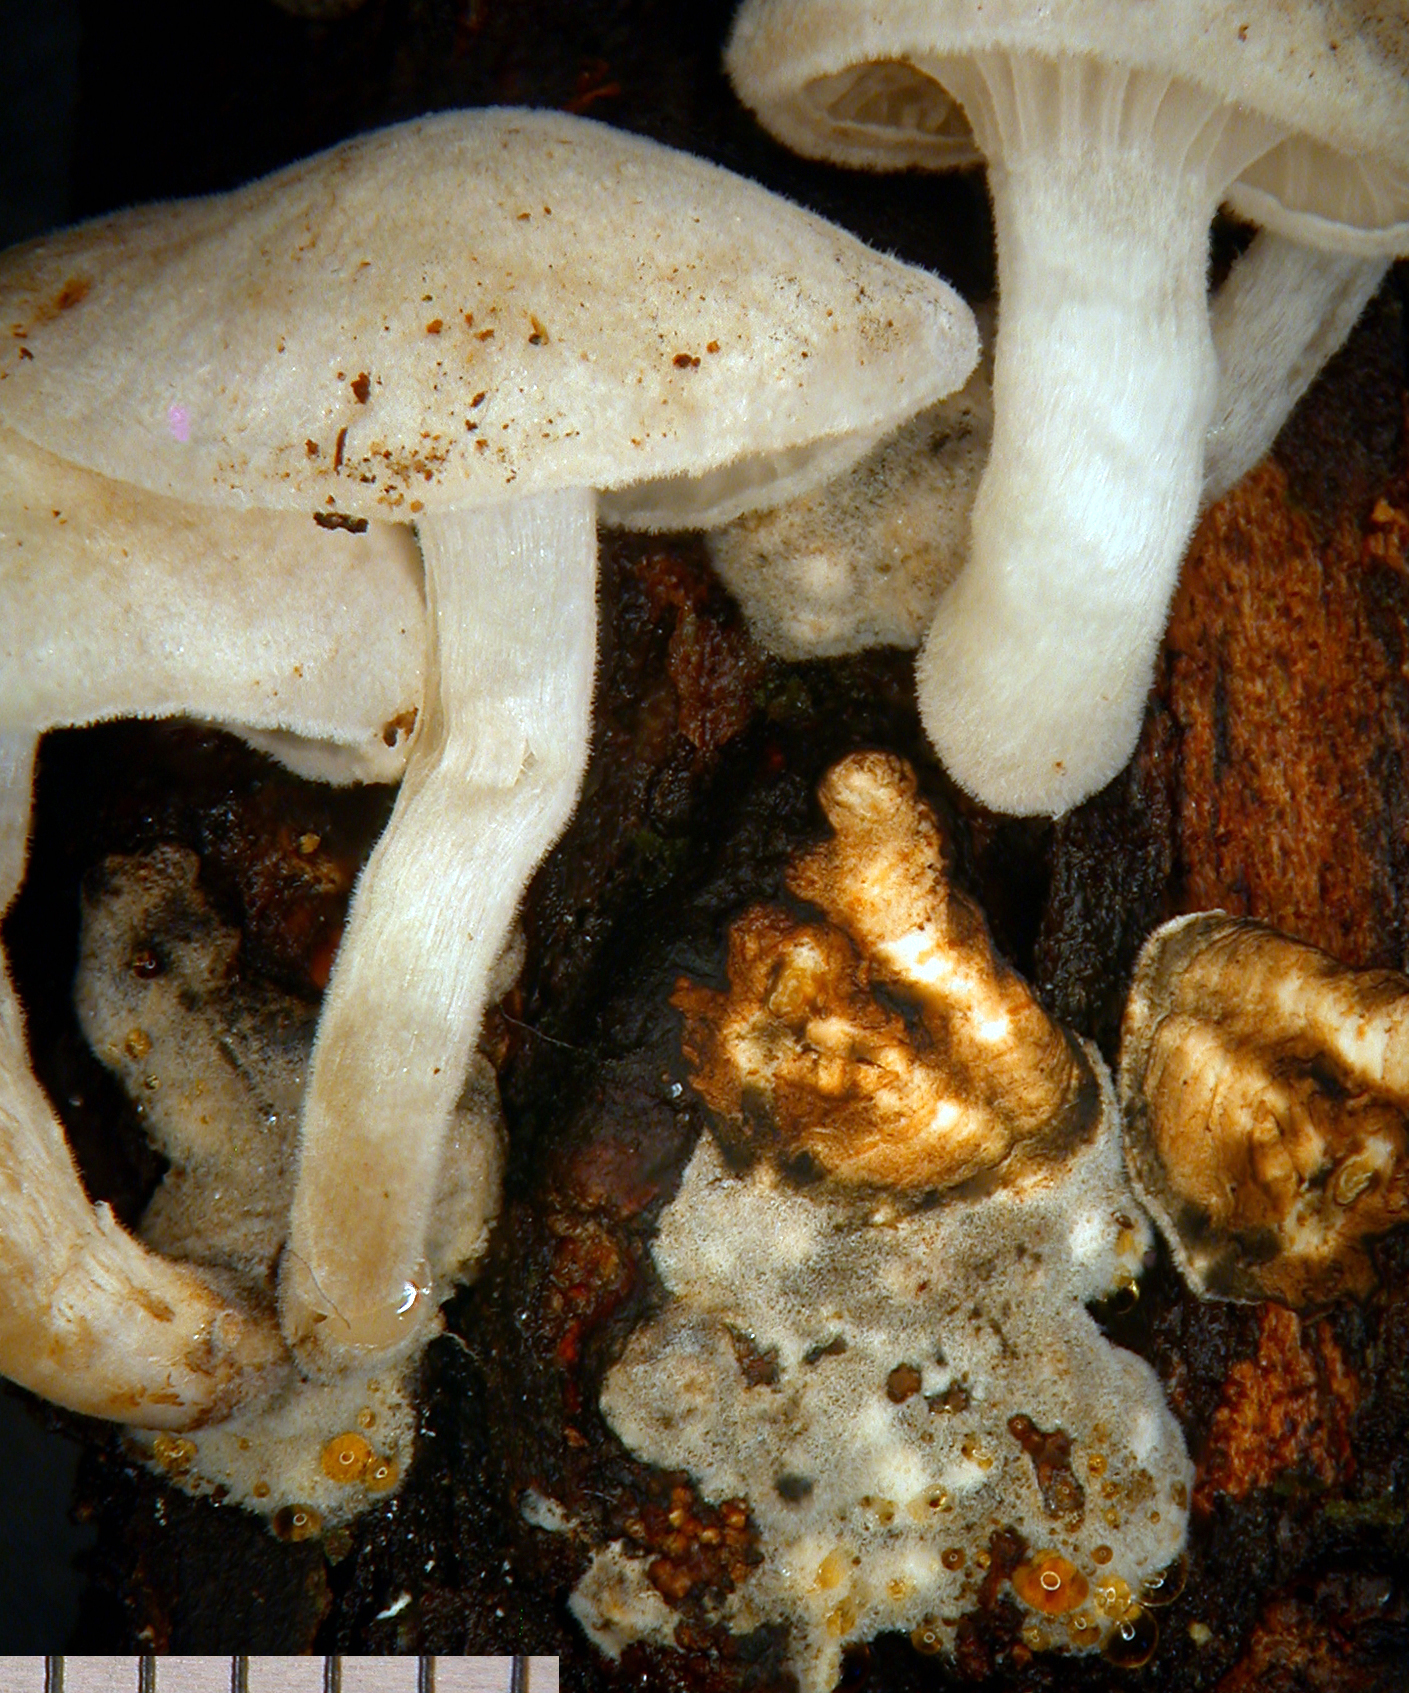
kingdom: Fungi
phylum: Basidiomycota
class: Agaricomycetes
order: Agaricales
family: Omphalotaceae
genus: Marasmiellus
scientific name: Marasmiellus candidus
